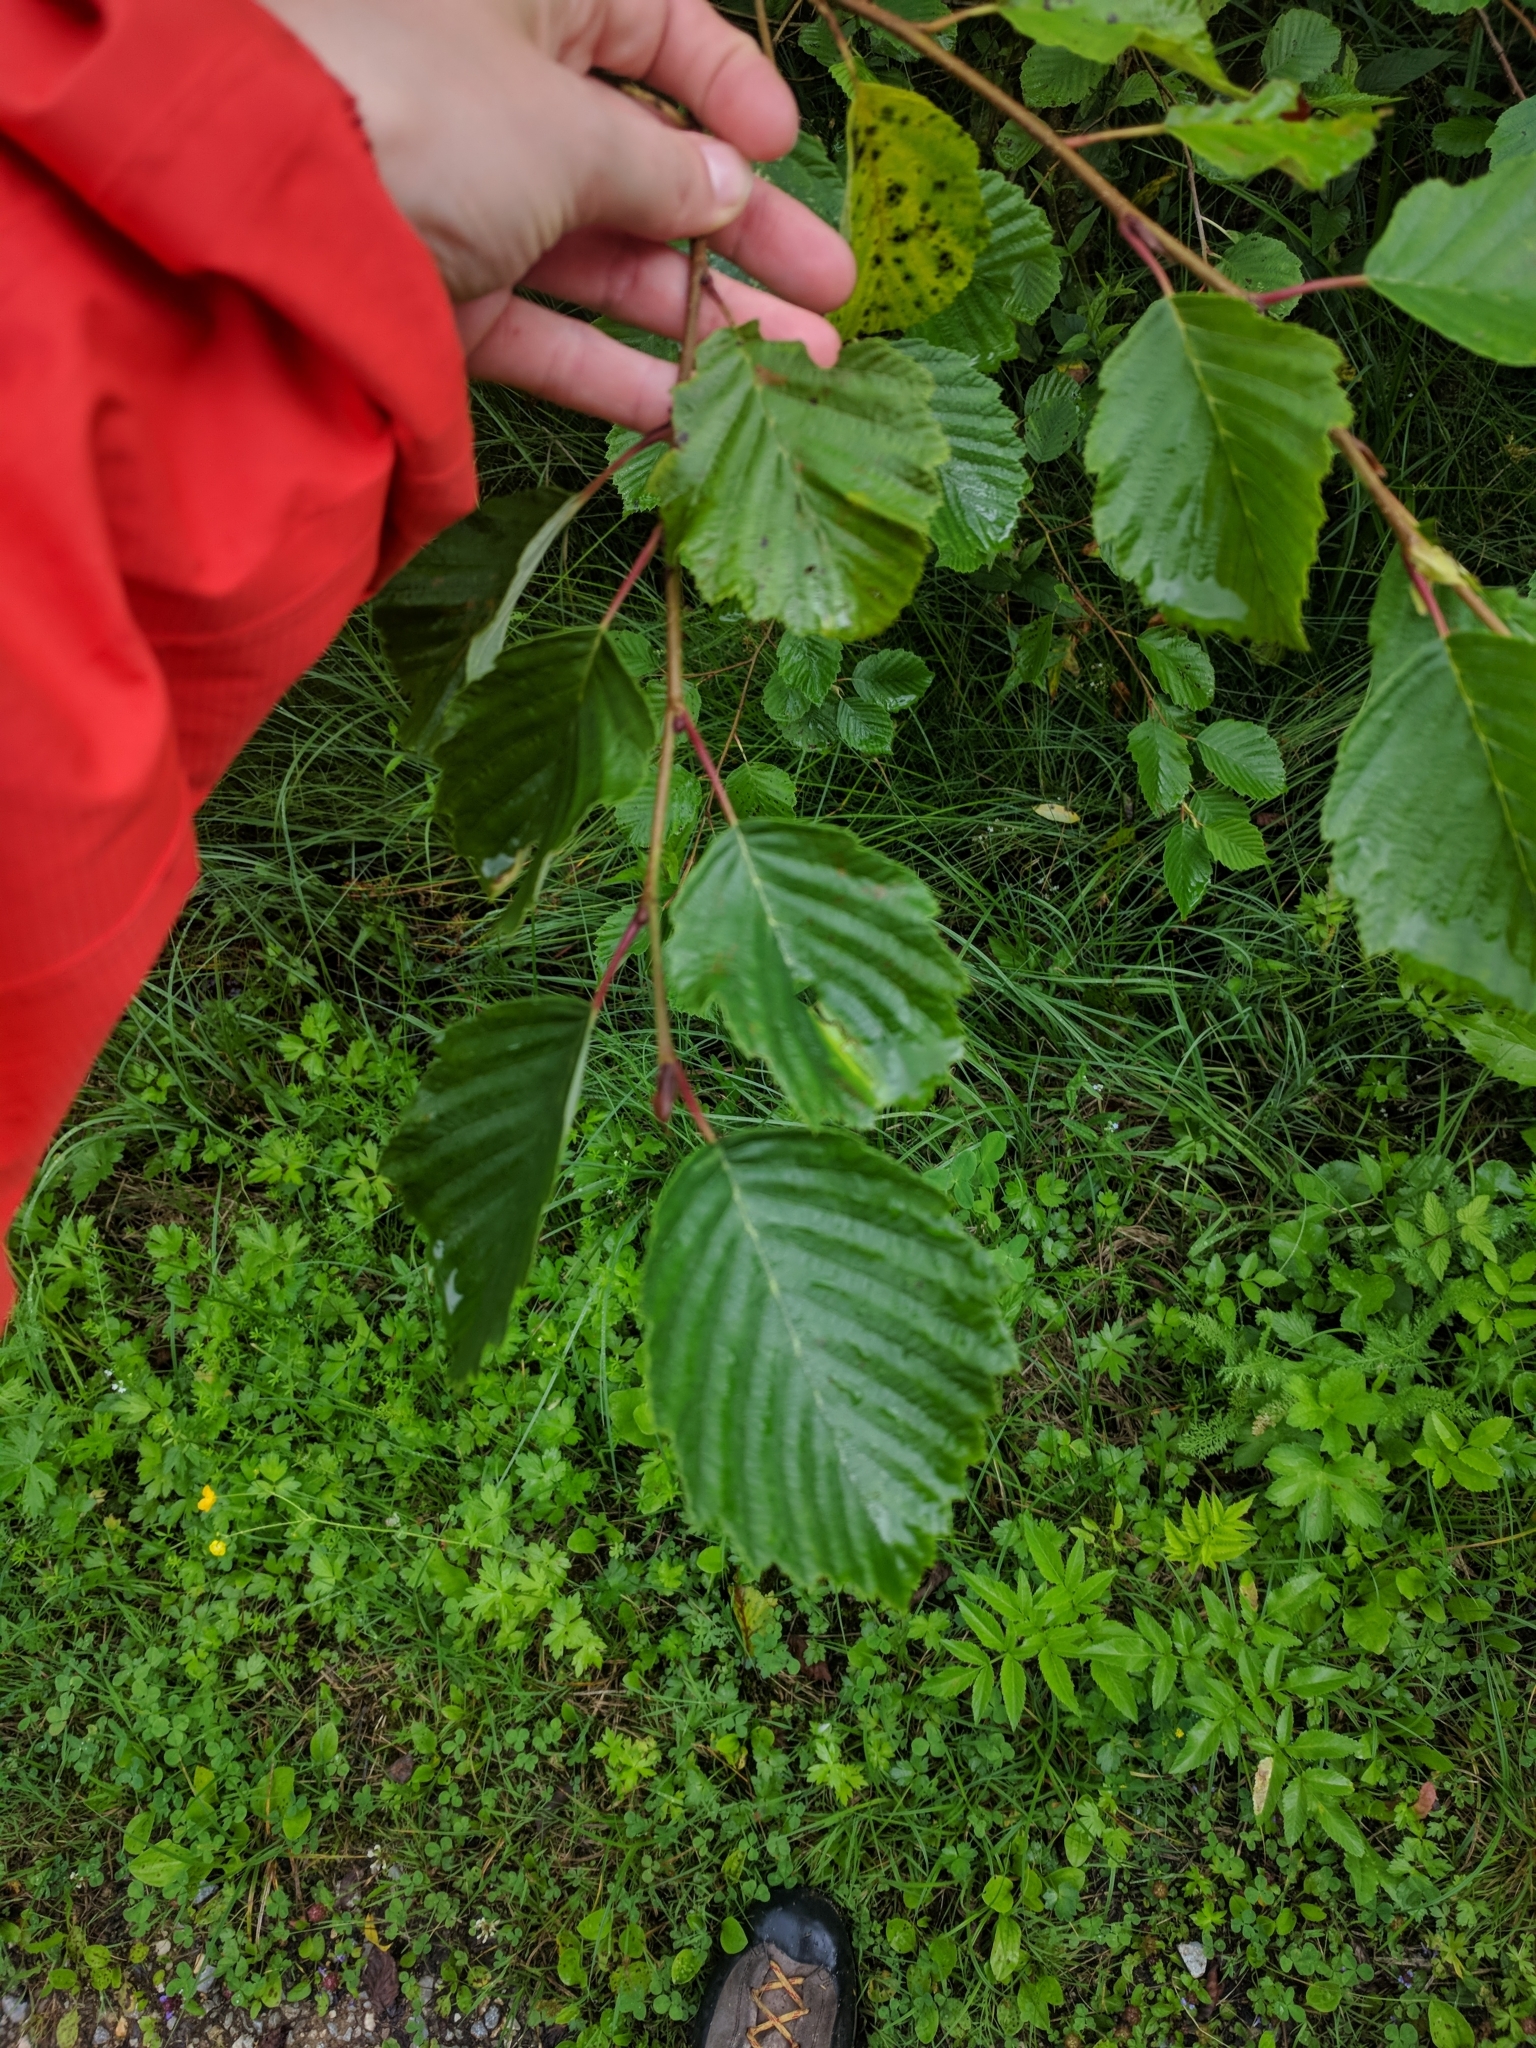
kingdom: Plantae
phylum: Tracheophyta
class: Magnoliopsida
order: Fagales
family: Betulaceae
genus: Alnus
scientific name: Alnus incana
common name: Grey alder
